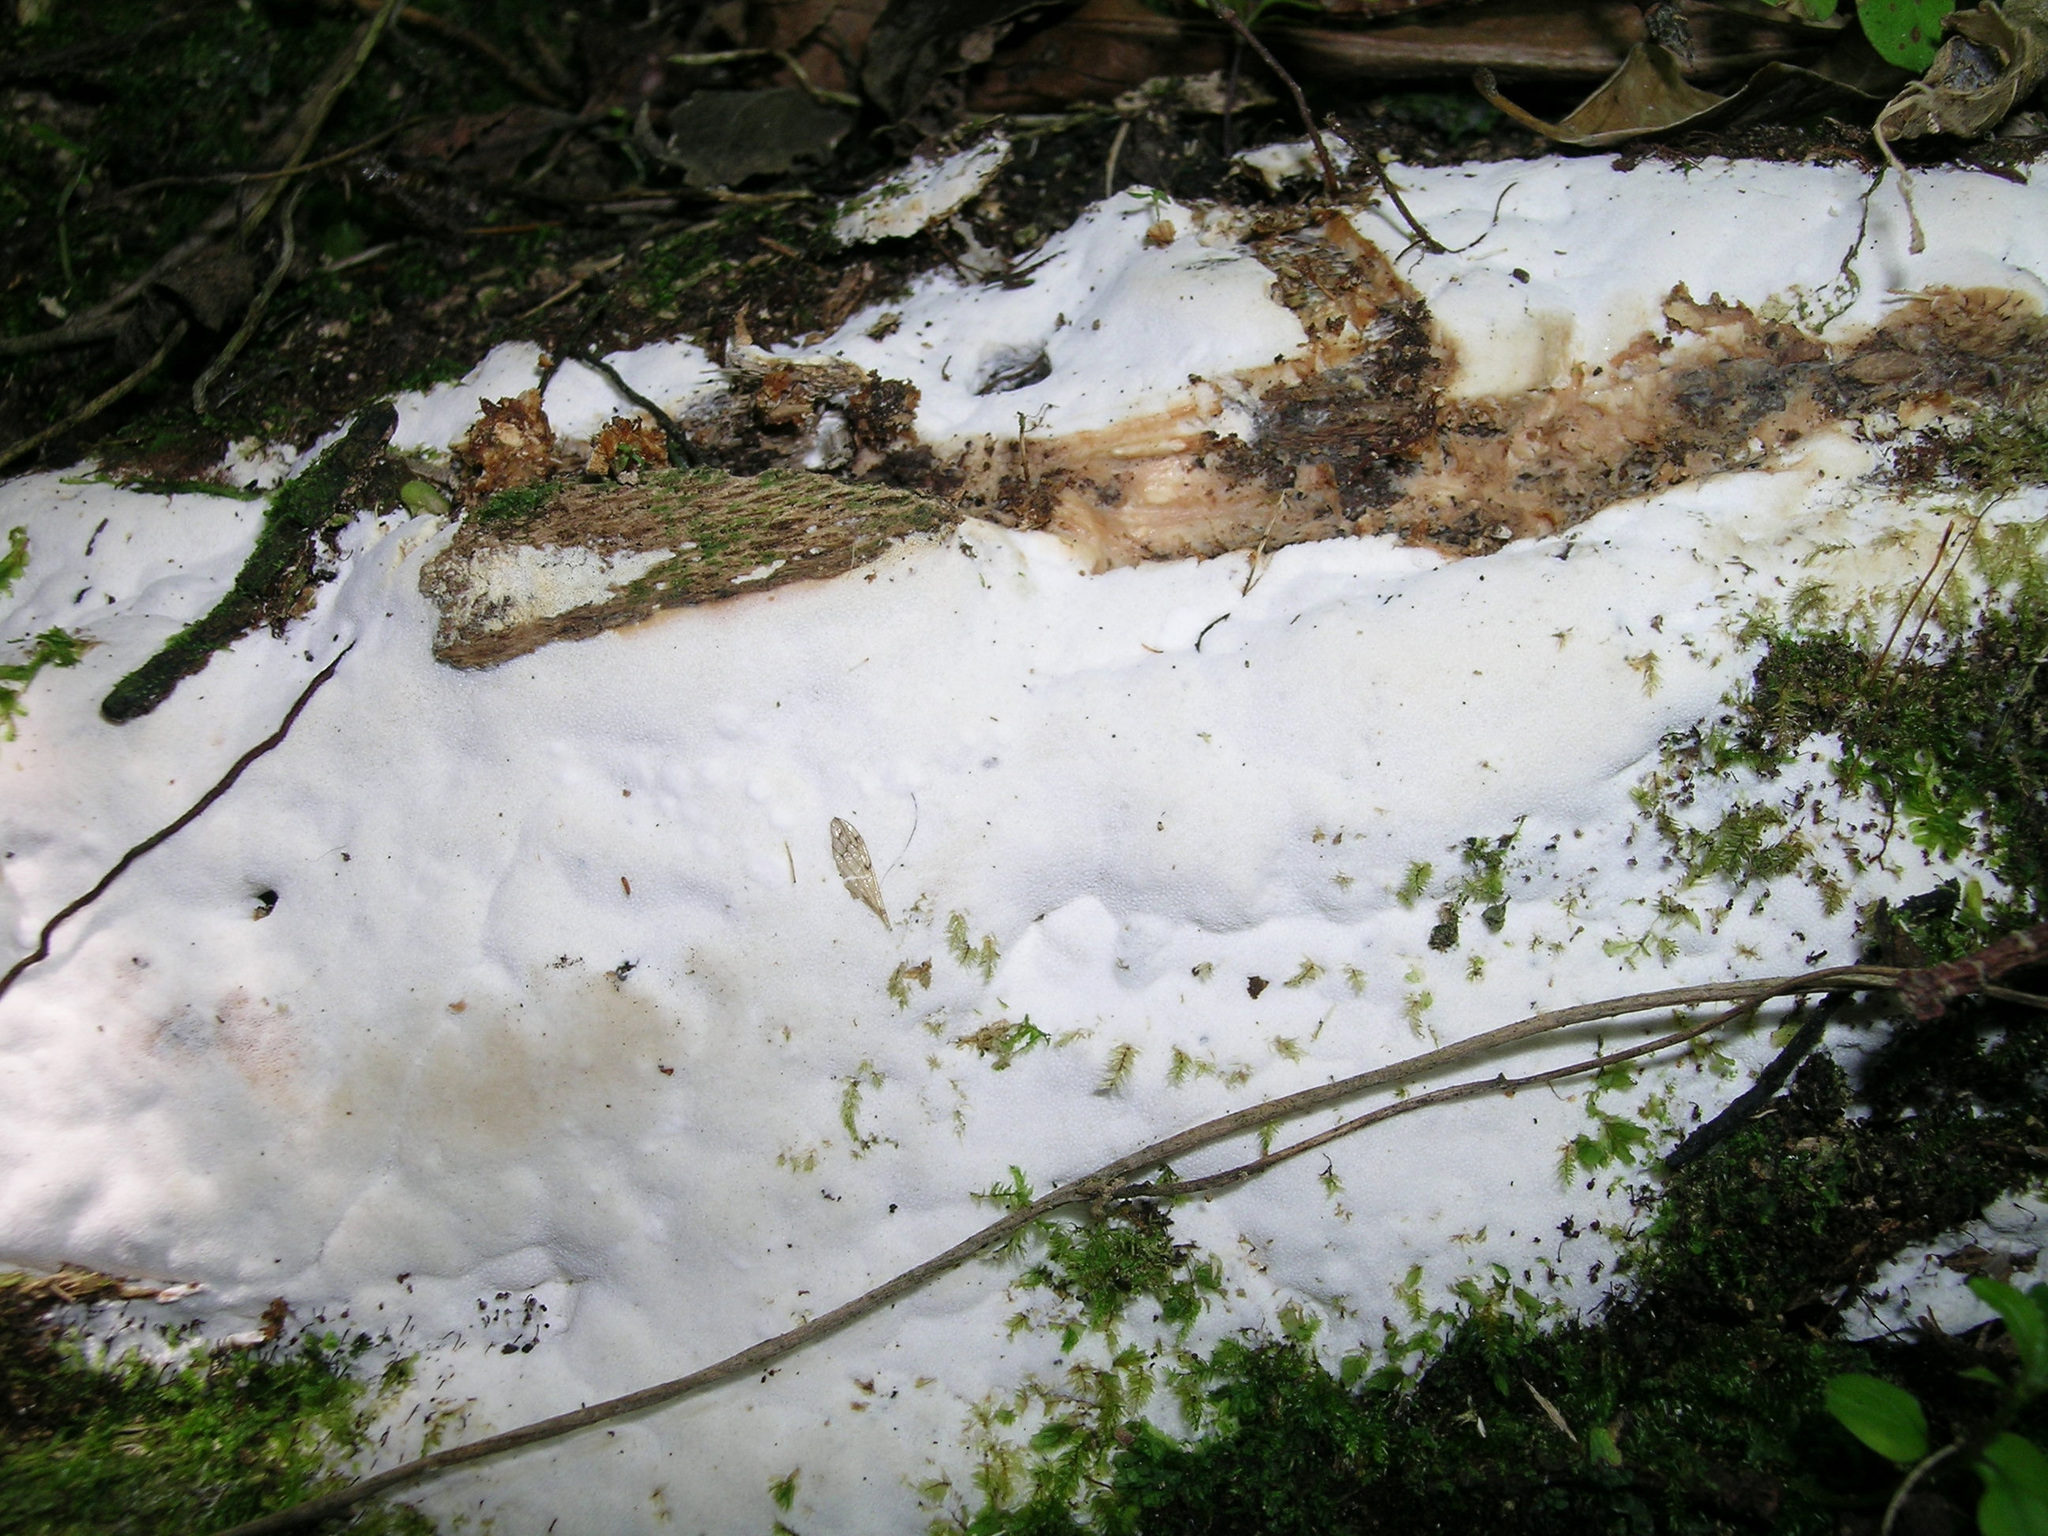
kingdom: Fungi
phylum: Basidiomycota
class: Agaricomycetes
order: Hymenochaetales
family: Rickenellaceae
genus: Sidera
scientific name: Sidera lowei
